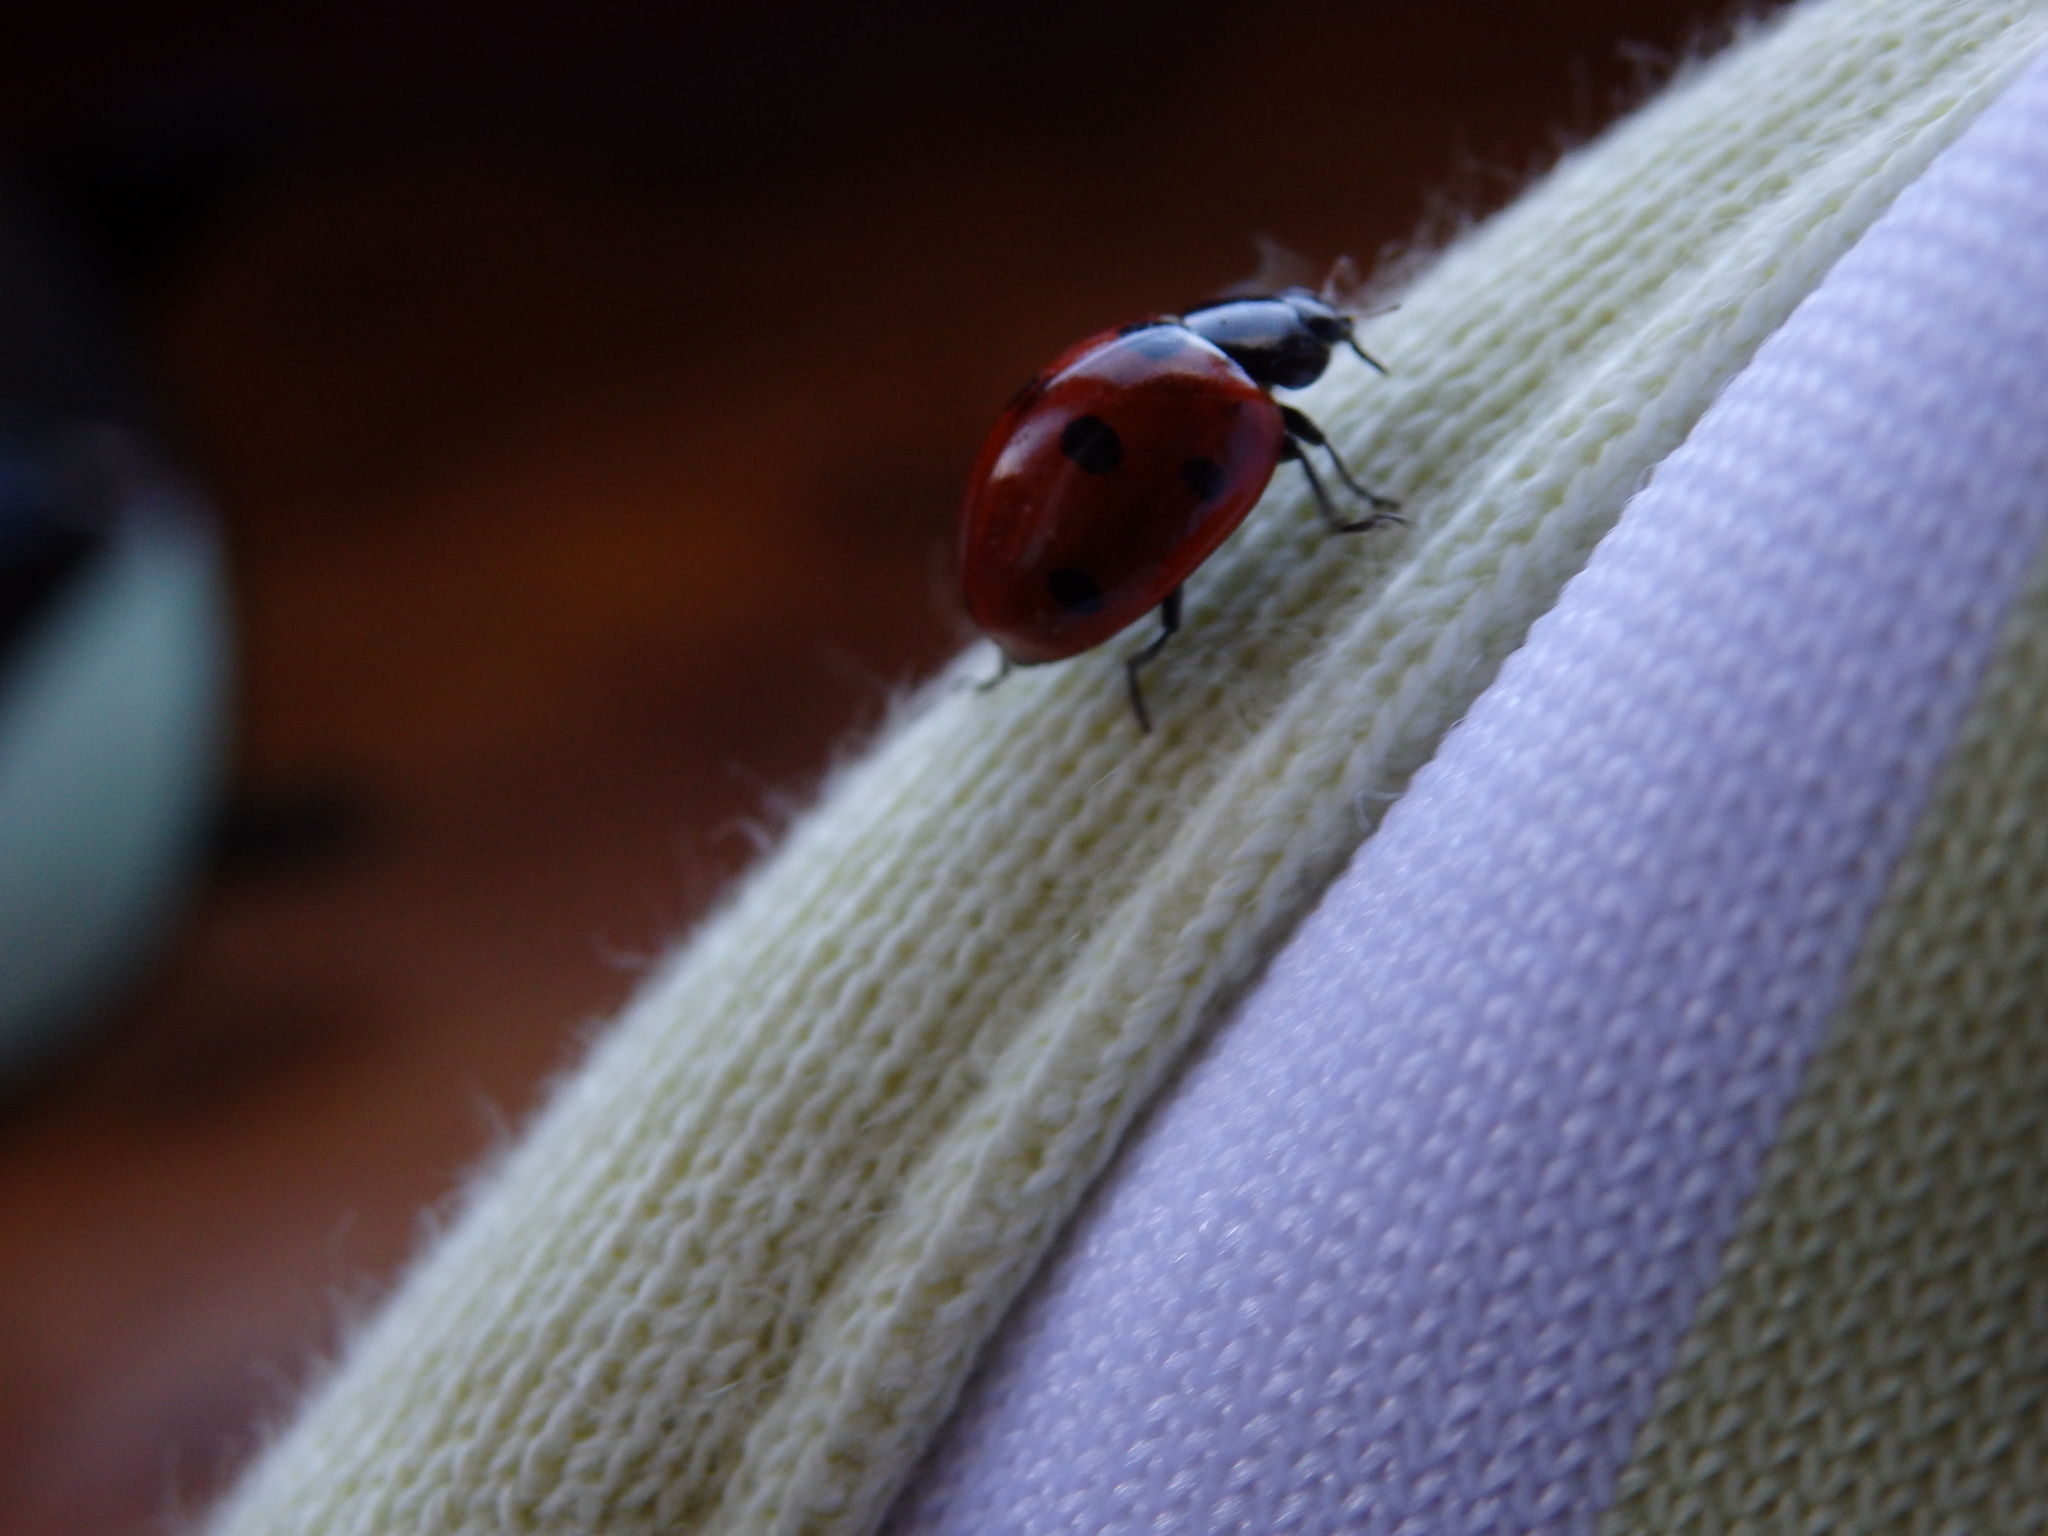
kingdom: Animalia
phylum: Arthropoda
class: Insecta
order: Coleoptera
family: Coccinellidae
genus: Coccinella
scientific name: Coccinella septempunctata
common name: Sevenspotted lady beetle
